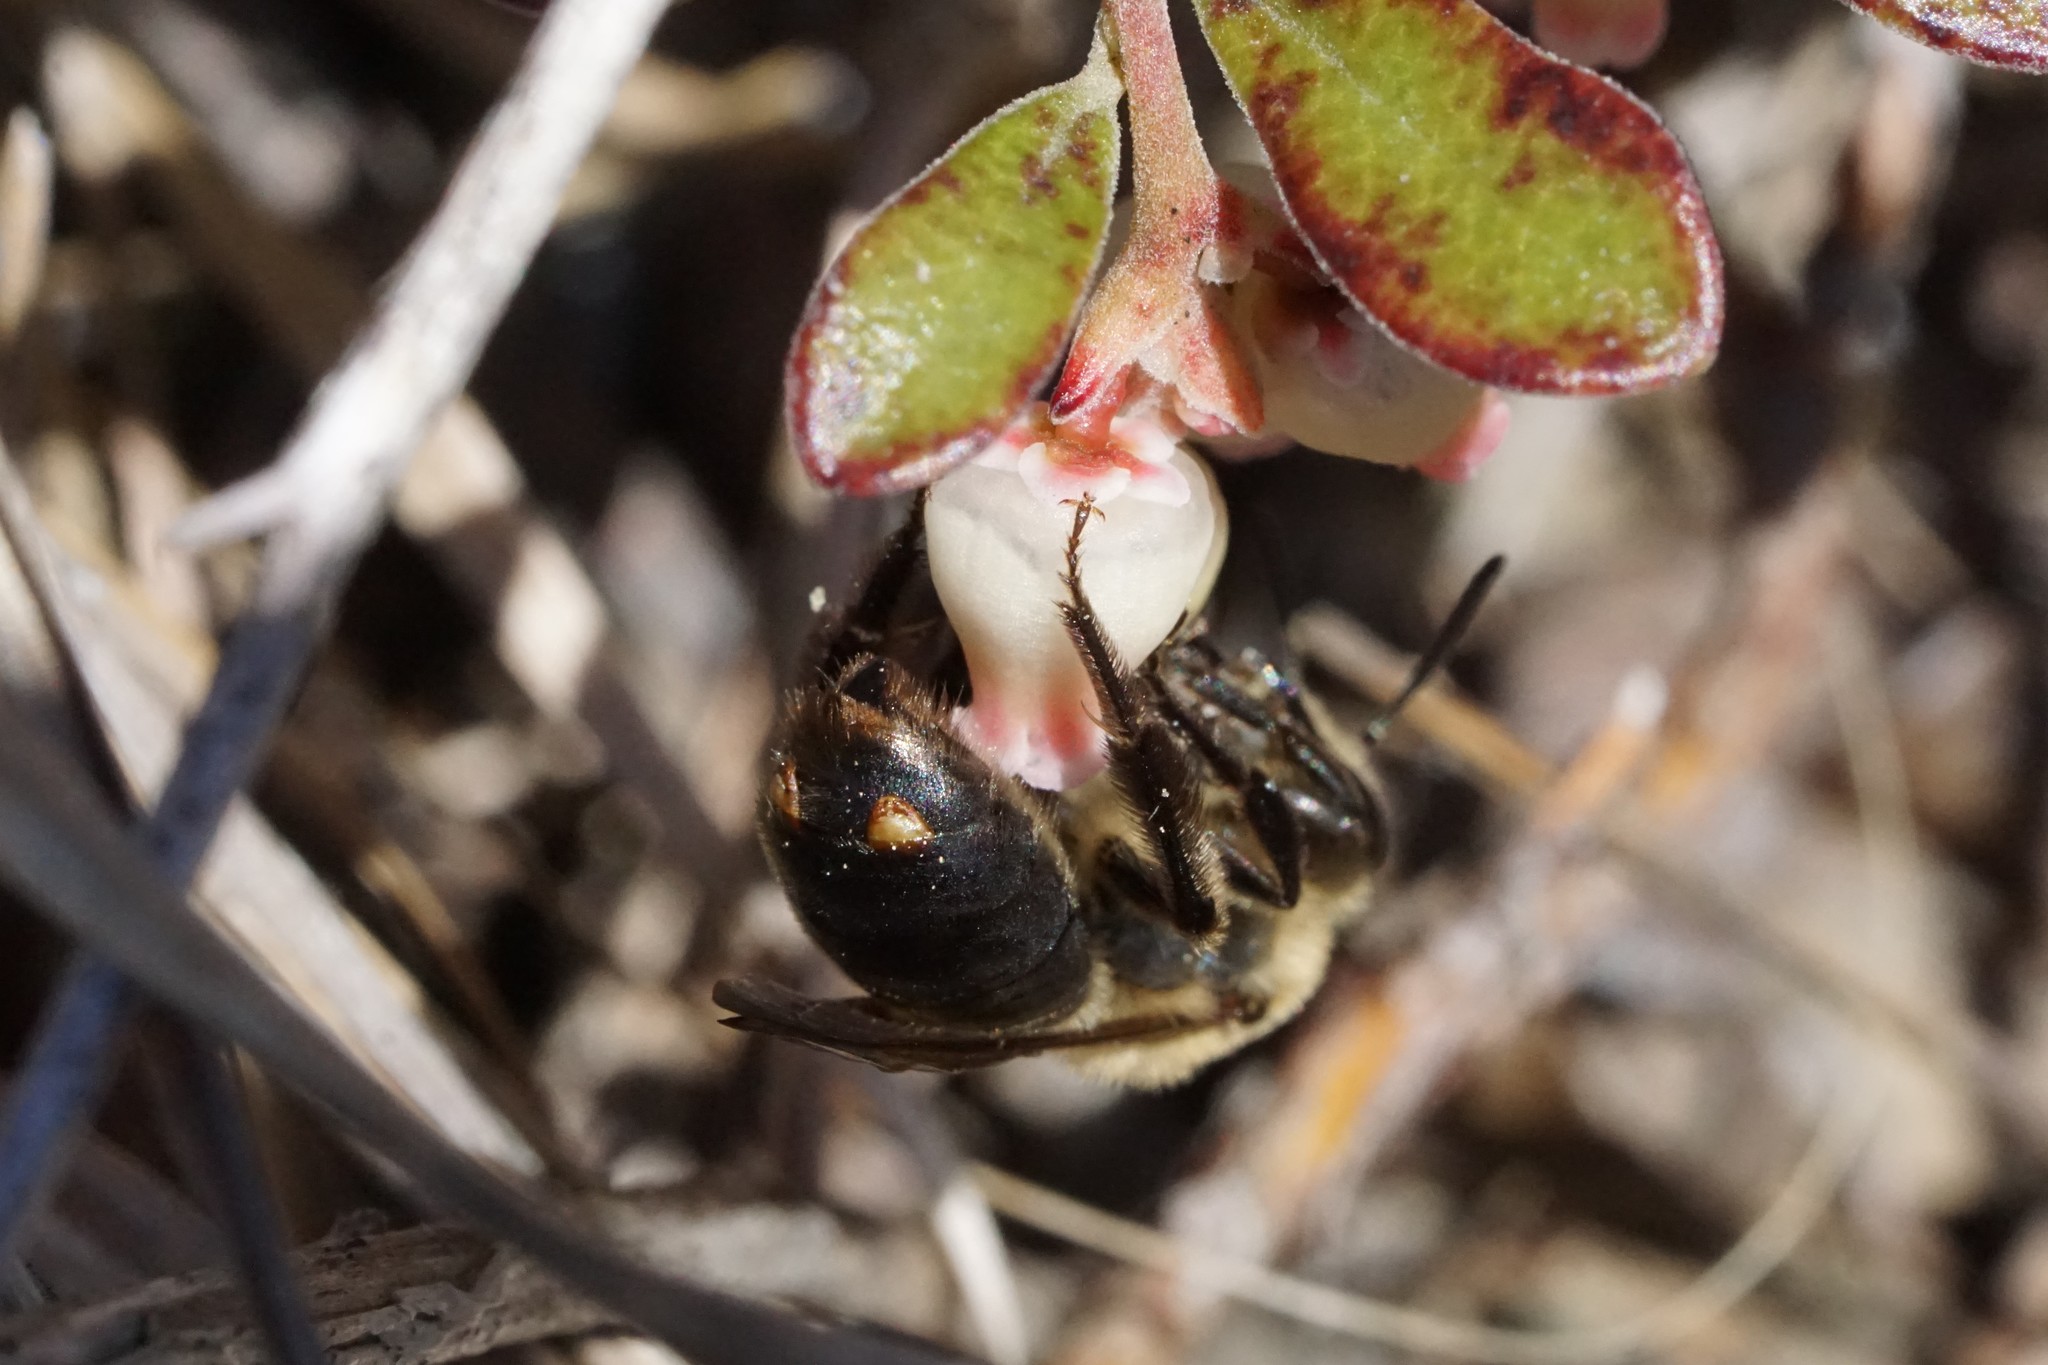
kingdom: Animalia
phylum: Arthropoda
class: Insecta
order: Strepsiptera
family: Stylopidae
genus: Stylops
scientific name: Stylops childreni
